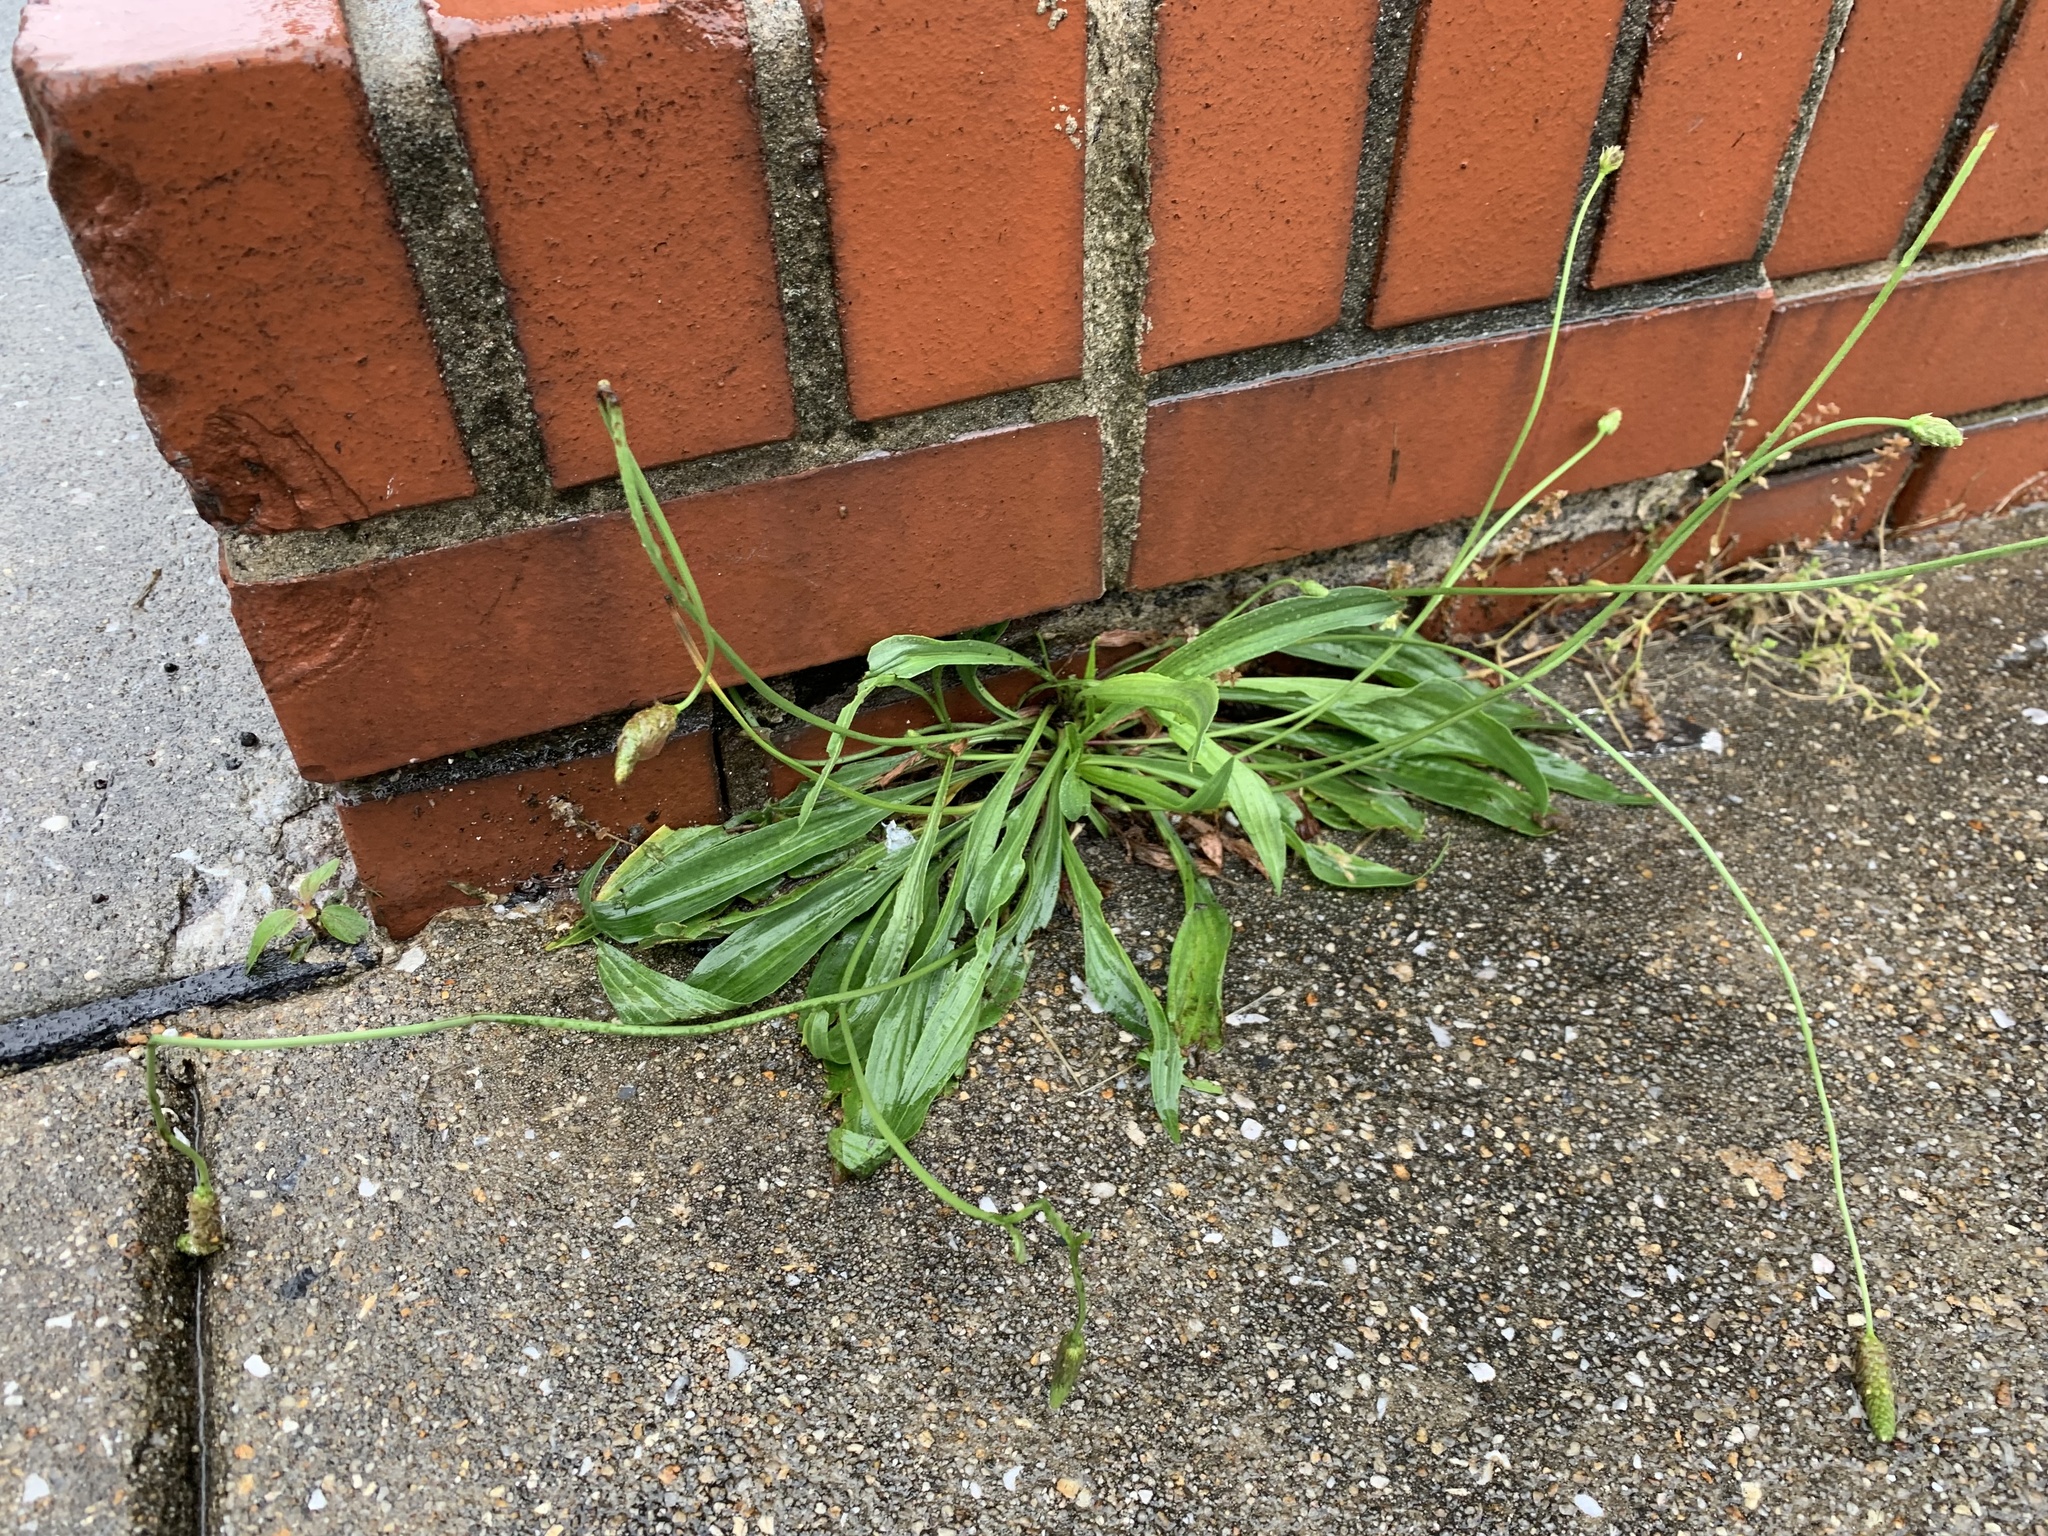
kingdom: Plantae
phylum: Tracheophyta
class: Magnoliopsida
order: Lamiales
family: Plantaginaceae
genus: Plantago
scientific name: Plantago lanceolata
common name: Ribwort plantain
